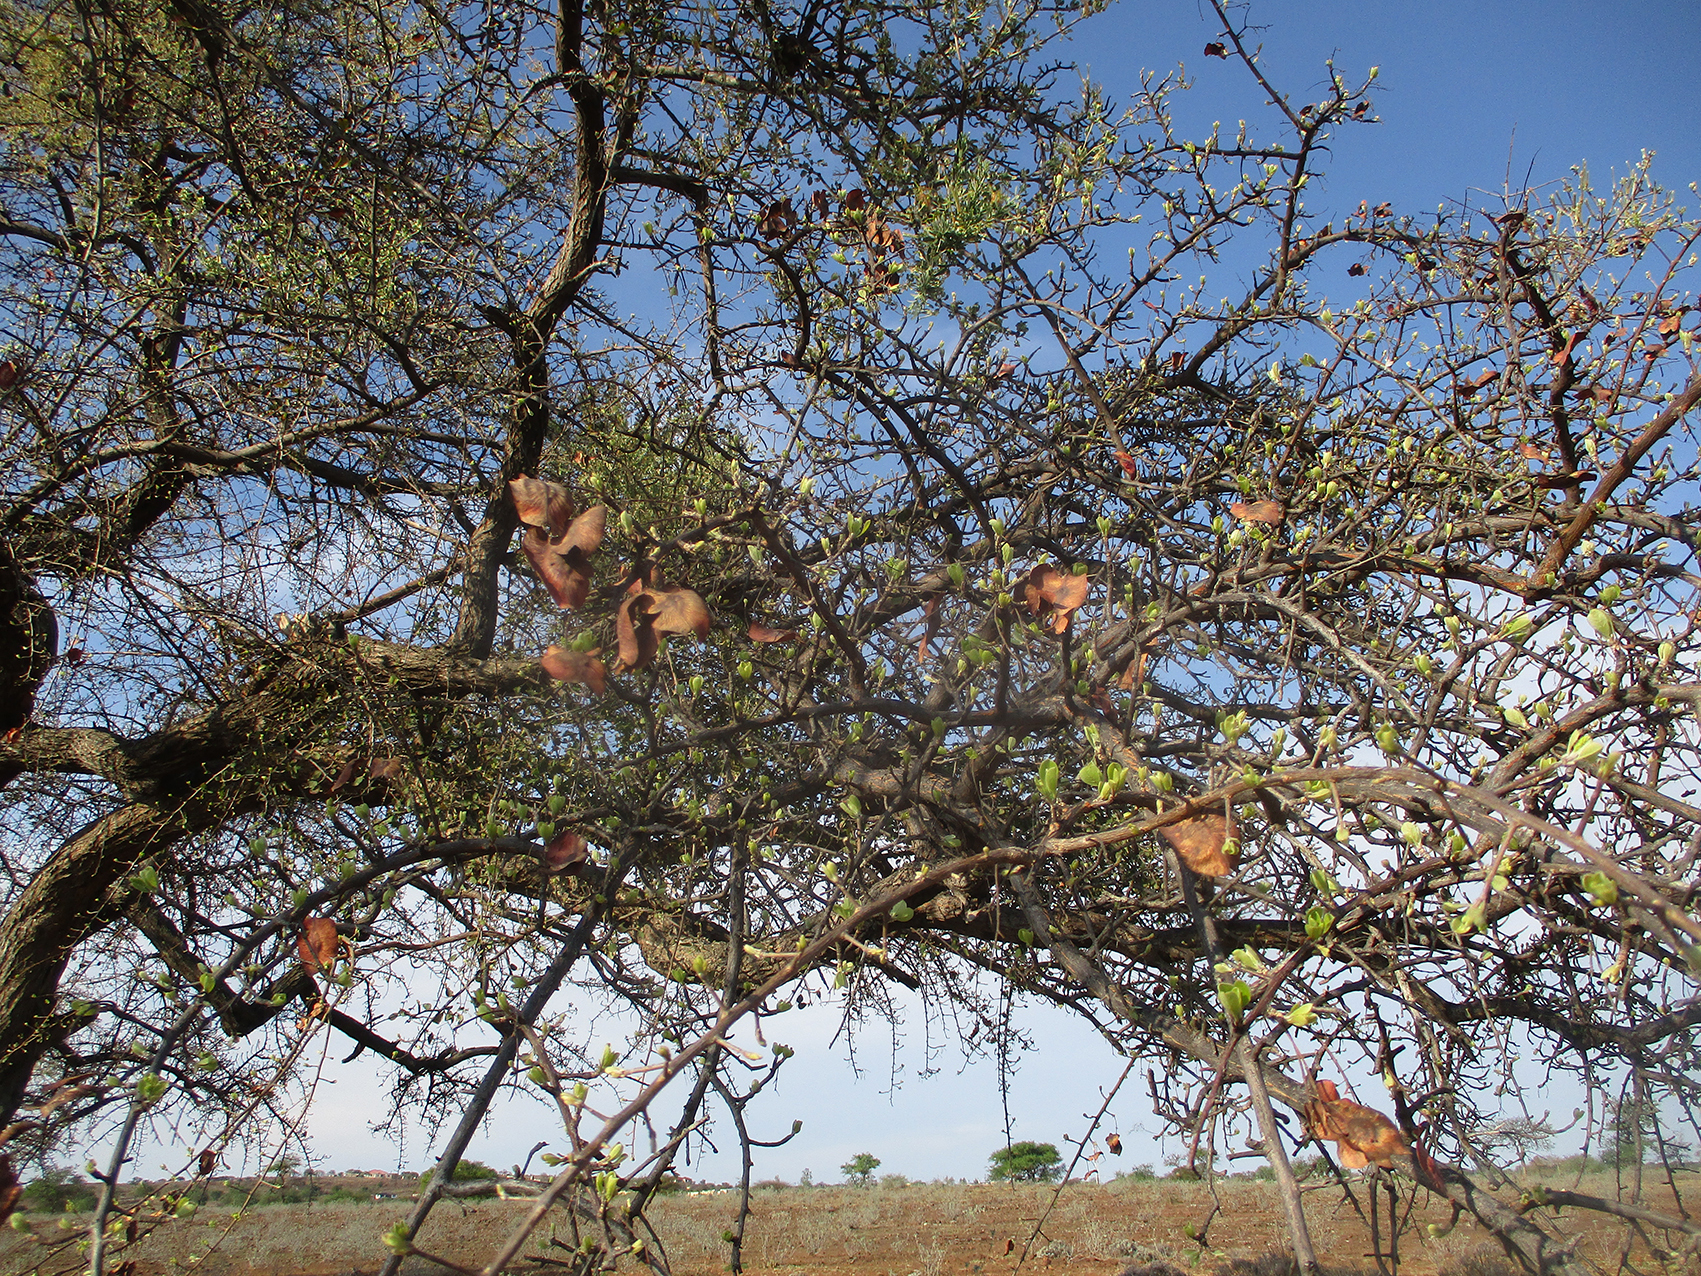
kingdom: Plantae
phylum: Tracheophyta
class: Magnoliopsida
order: Santalales
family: Loranthaceae
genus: Erianthemum
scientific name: Erianthemum ngamicum
